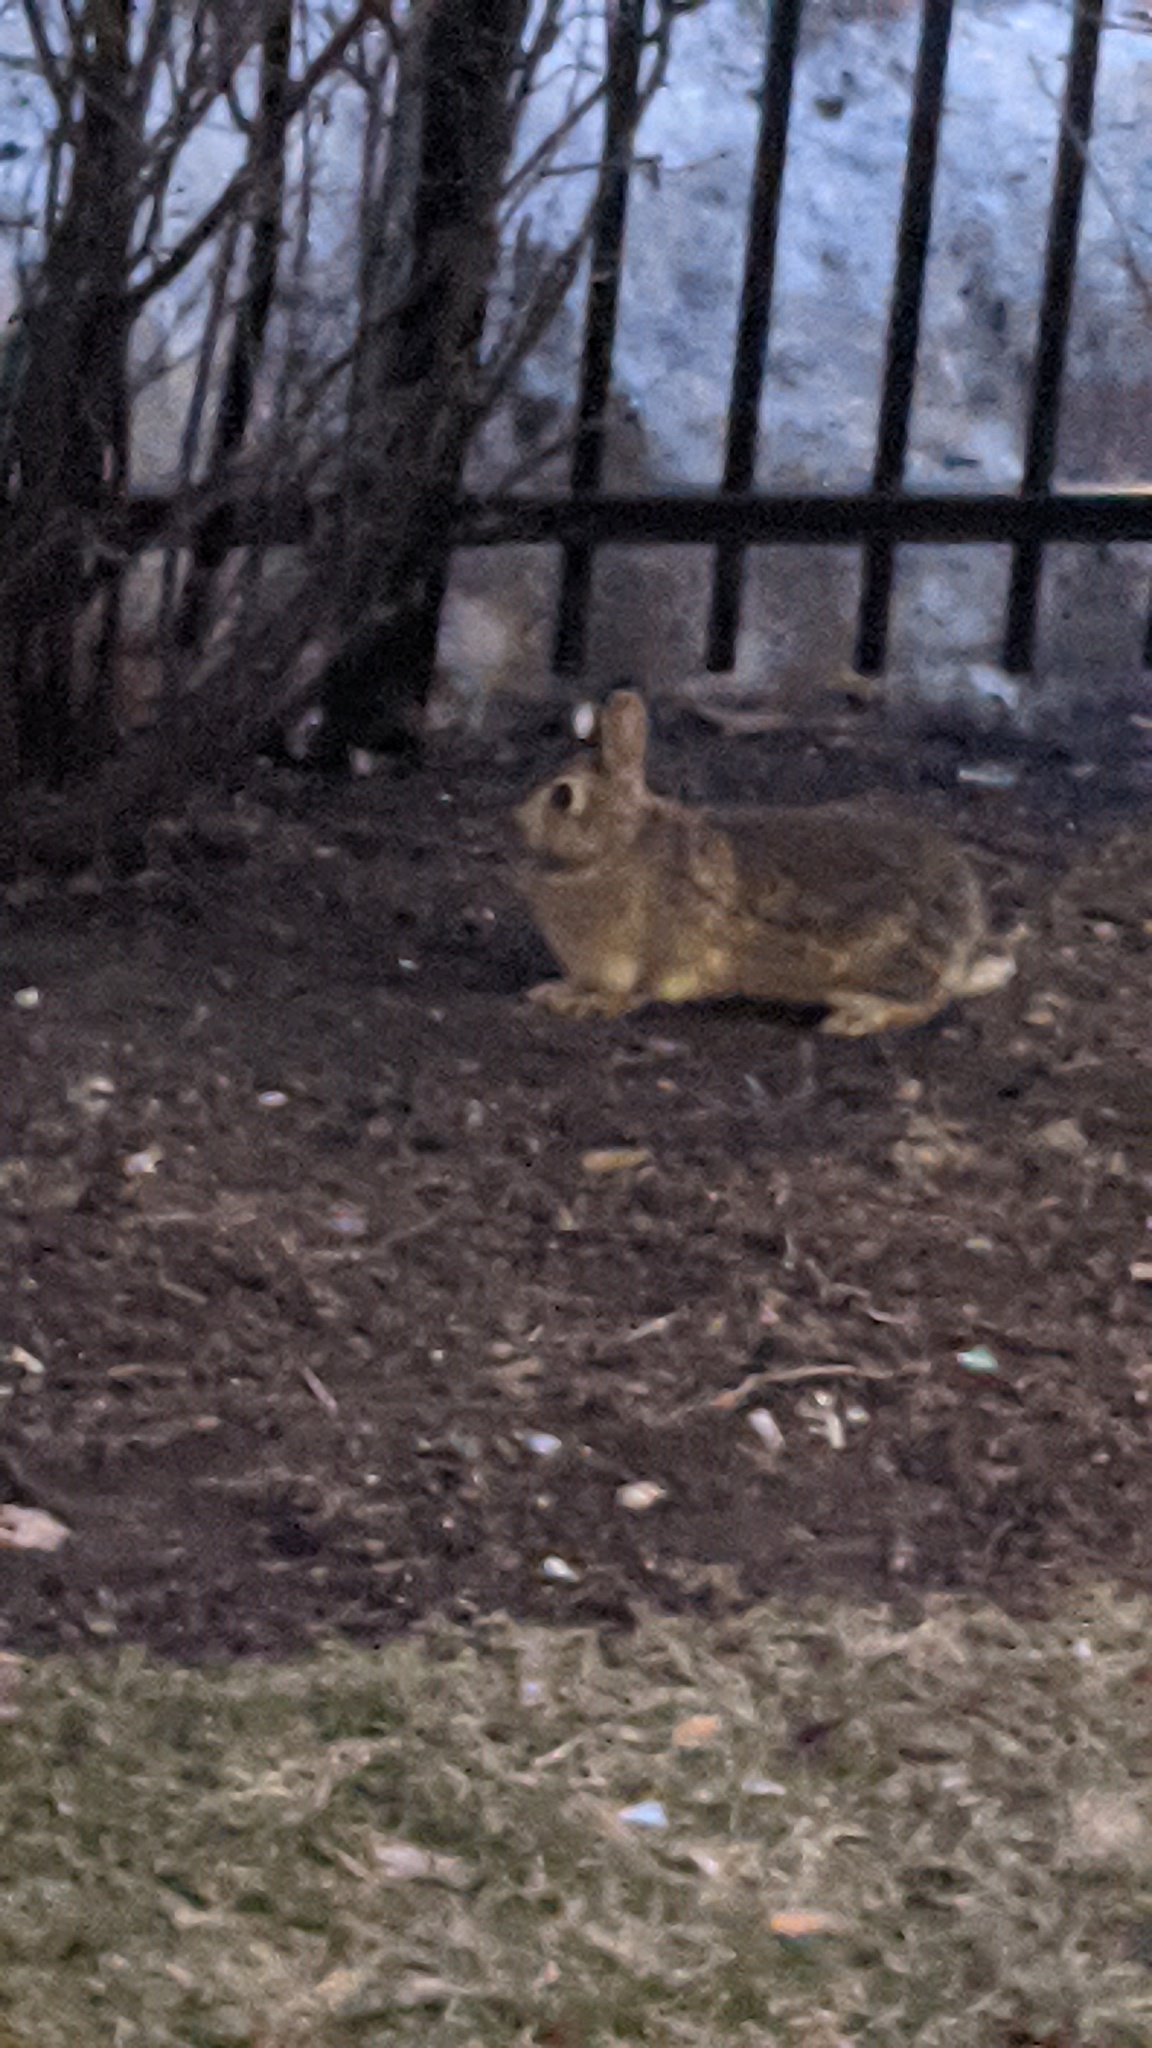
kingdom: Animalia
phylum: Chordata
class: Mammalia
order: Lagomorpha
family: Leporidae
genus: Sylvilagus
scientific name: Sylvilagus floridanus
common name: Eastern cottontail
